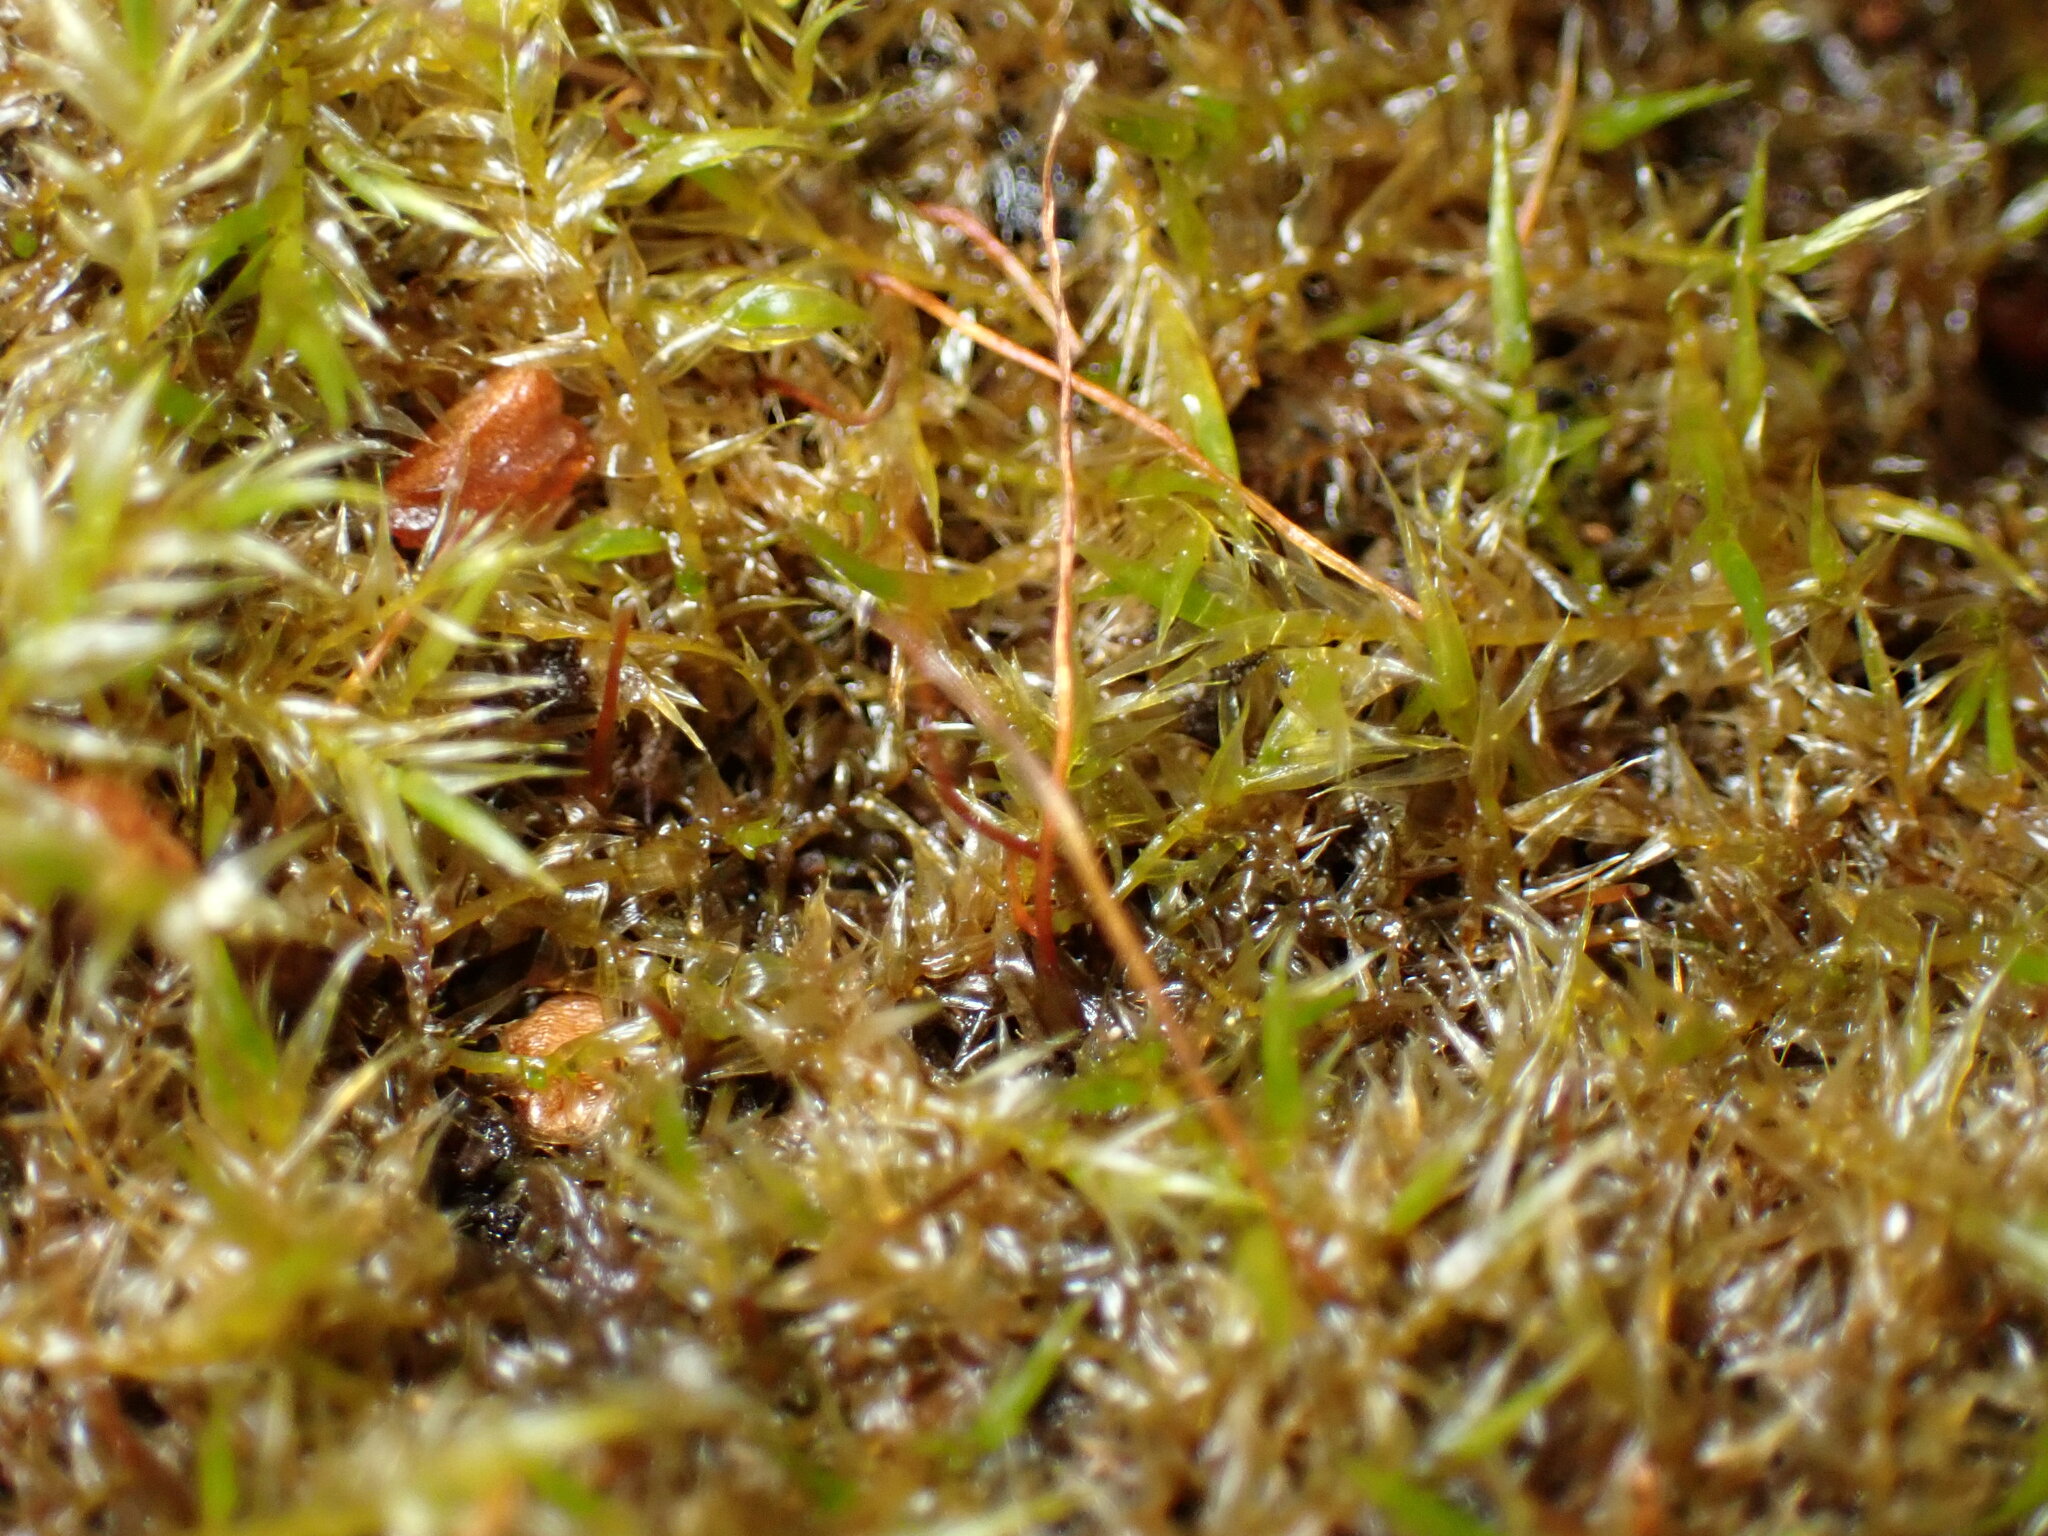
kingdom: Plantae
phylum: Bryophyta
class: Bryopsida
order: Hypnales
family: Amblystegiaceae
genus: Leptodictyum
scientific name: Leptodictyum riparium
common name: Riparian feather moss
